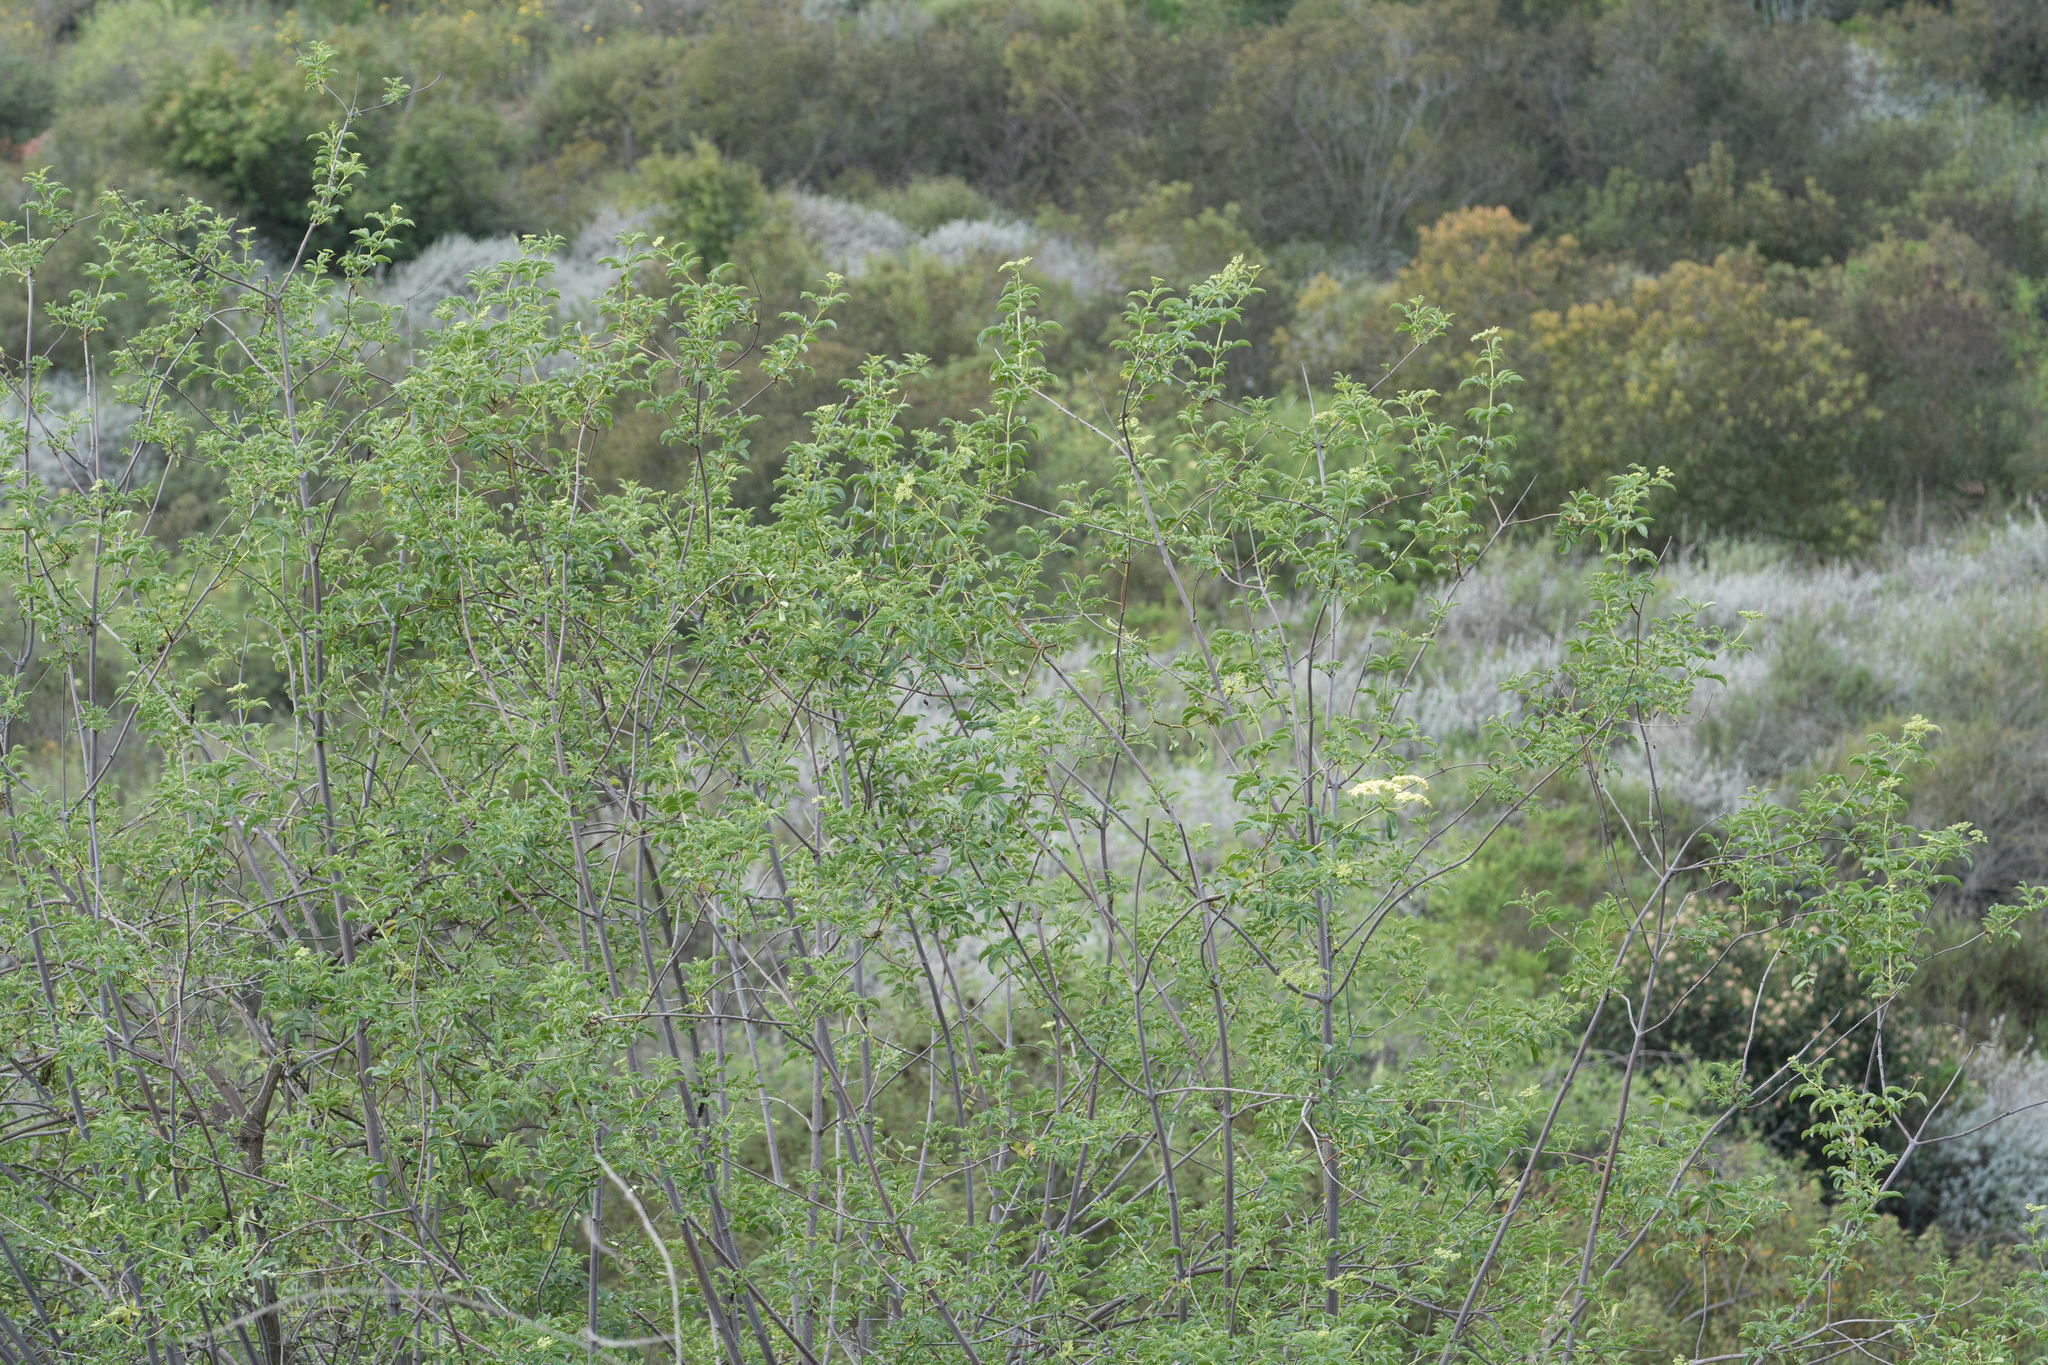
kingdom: Plantae
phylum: Tracheophyta
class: Magnoliopsida
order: Dipsacales
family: Viburnaceae
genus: Sambucus
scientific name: Sambucus cerulea
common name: Blue elder
